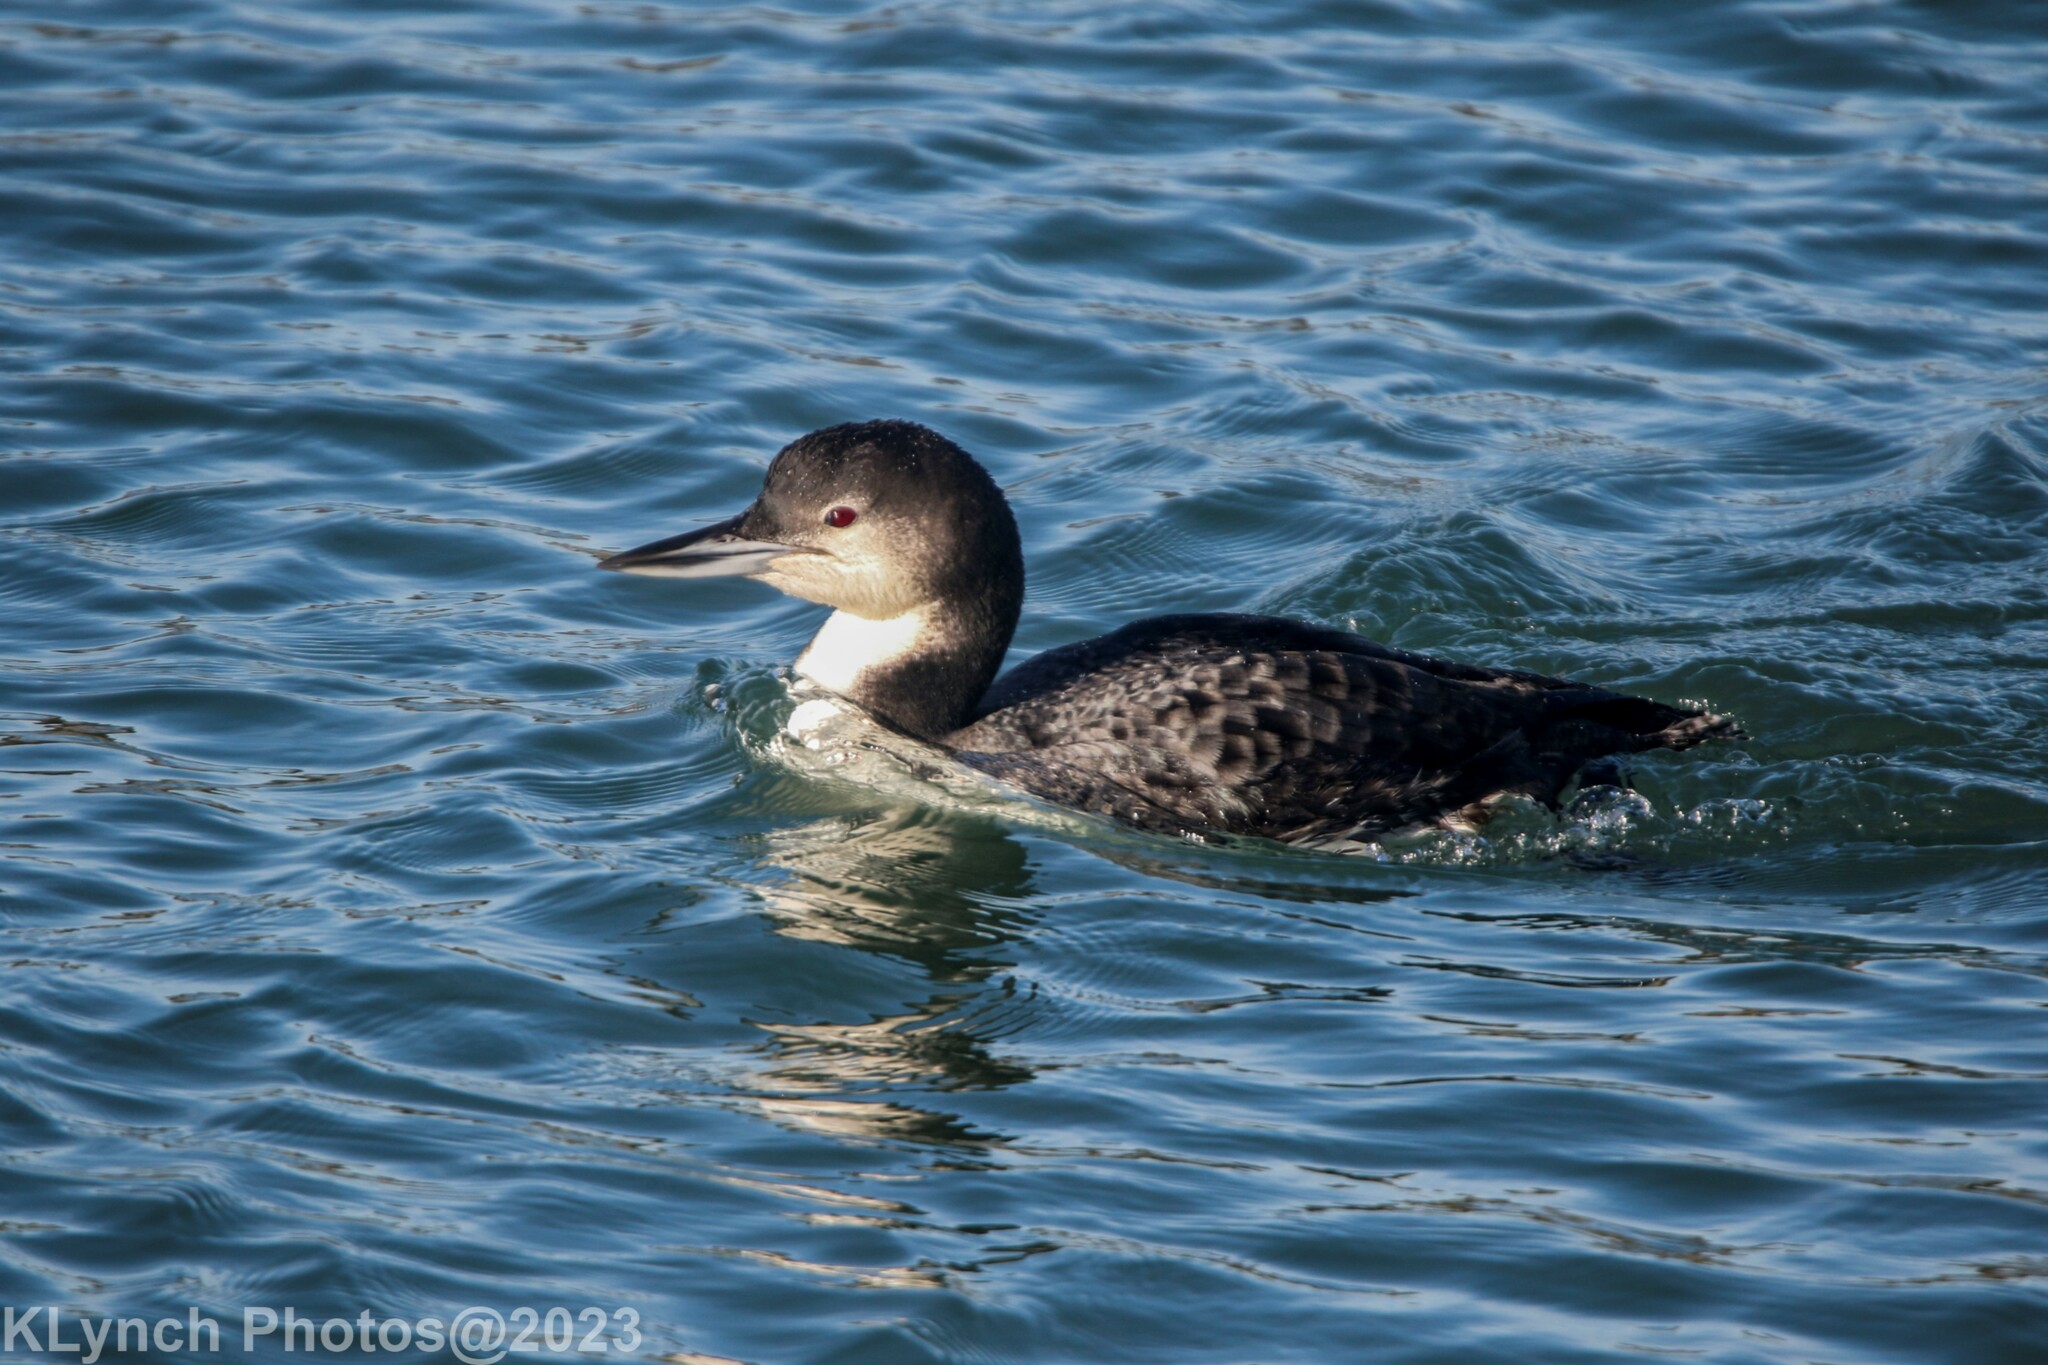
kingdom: Animalia
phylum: Chordata
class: Aves
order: Gaviiformes
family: Gaviidae
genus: Gavia
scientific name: Gavia immer
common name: Common loon
